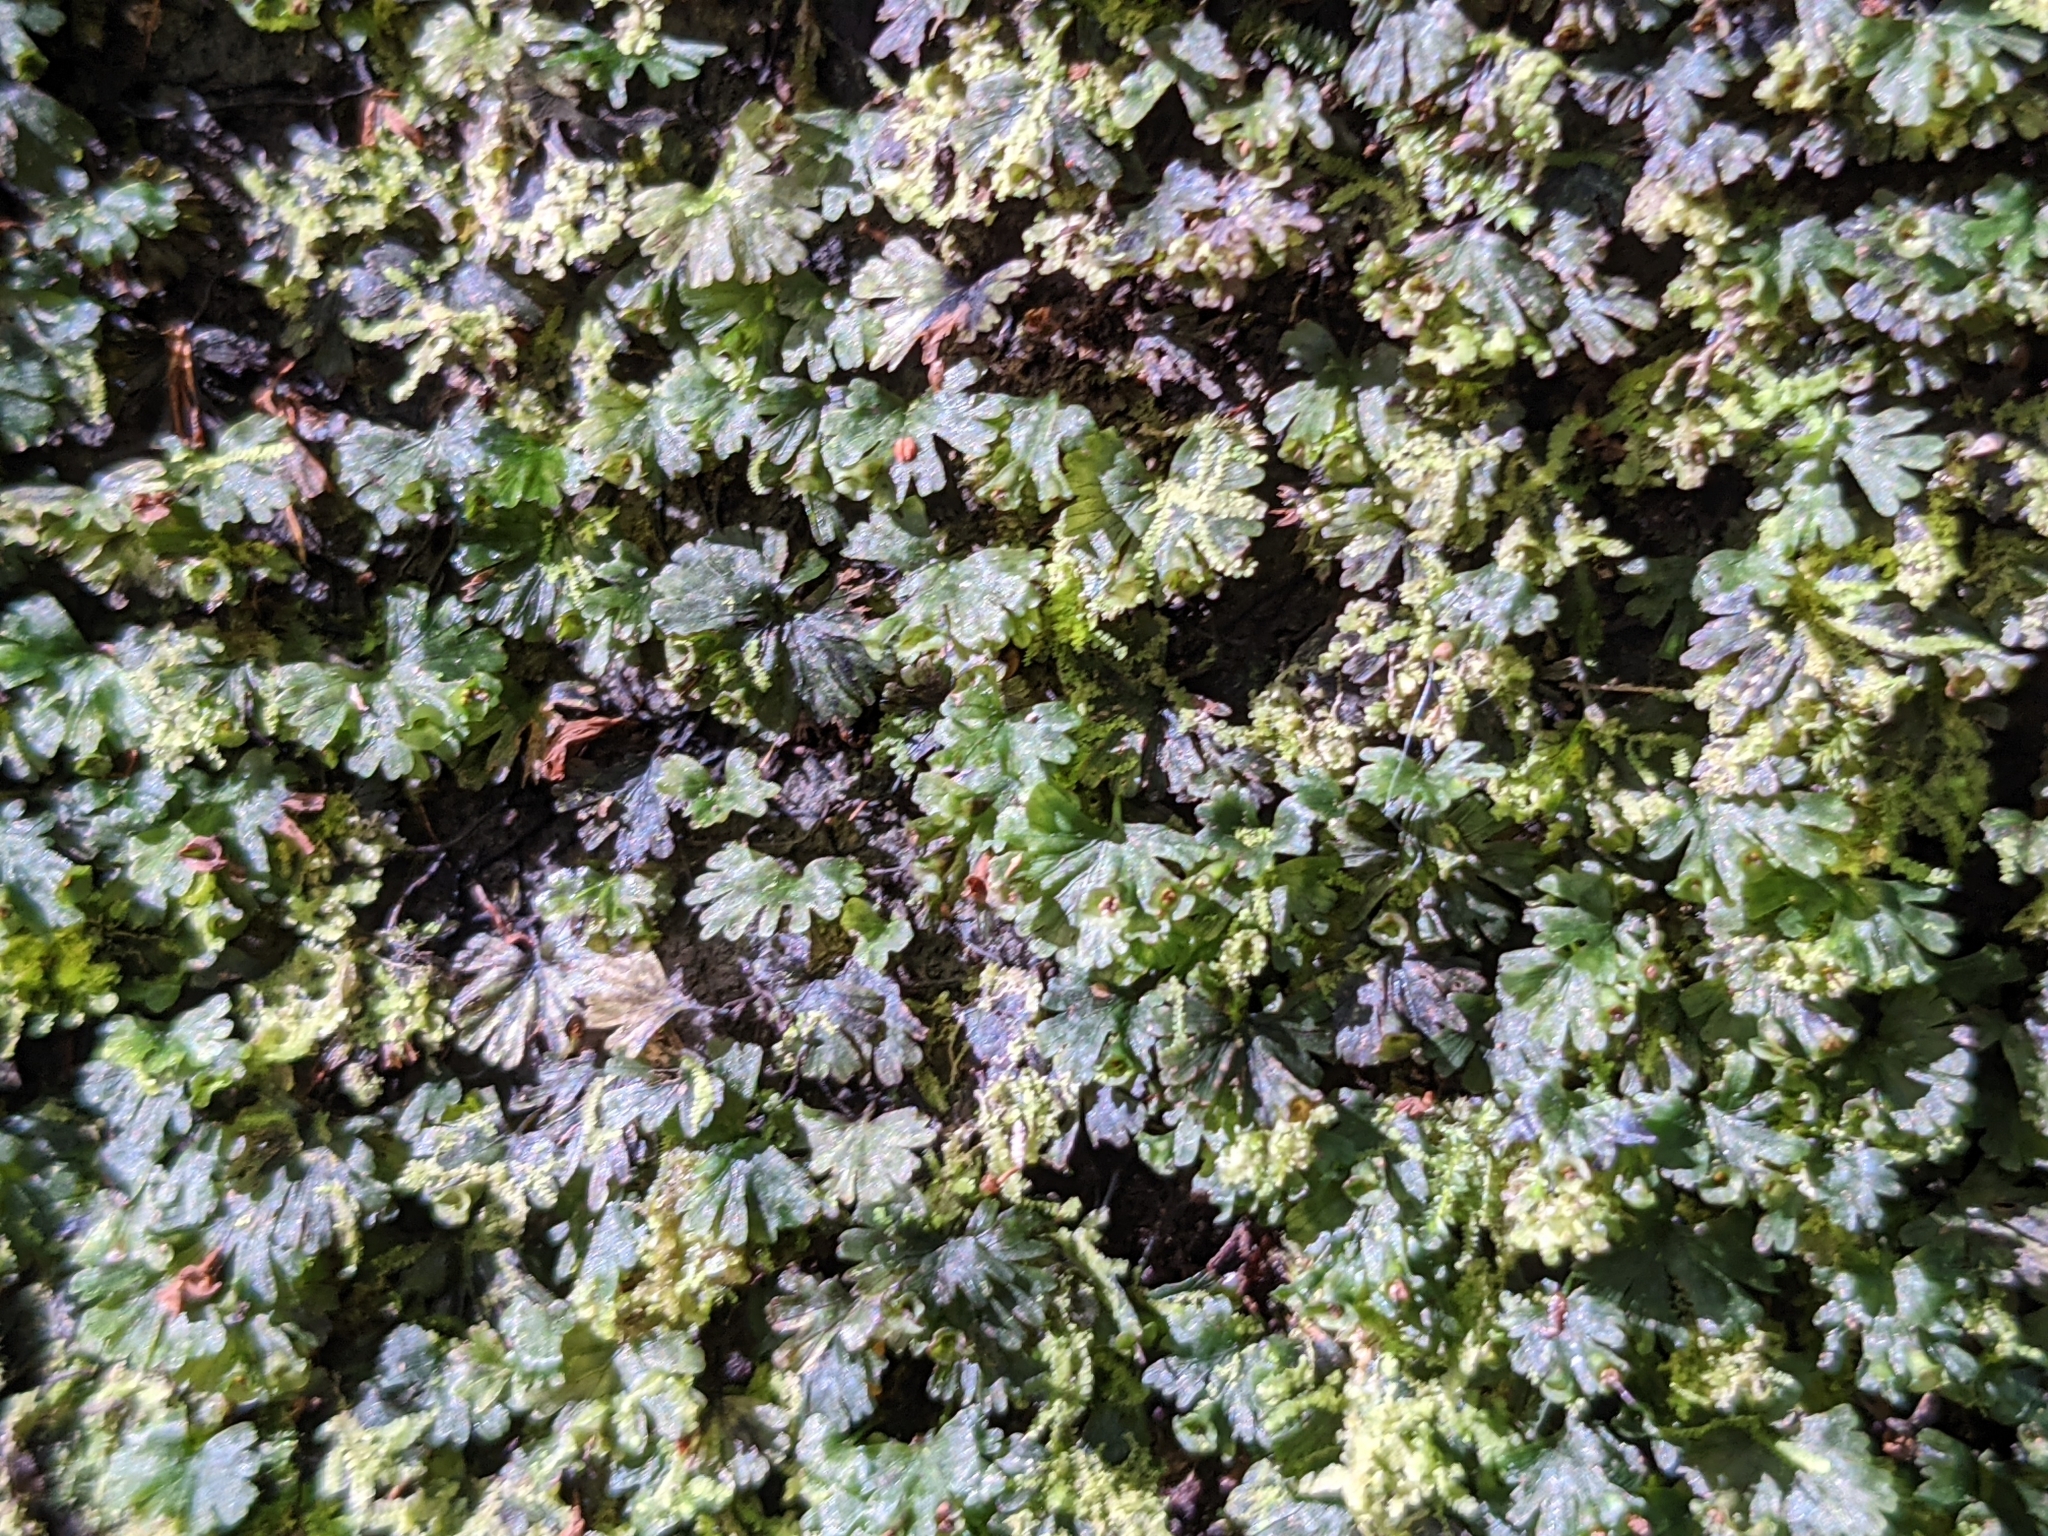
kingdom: Plantae
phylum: Tracheophyta
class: Polypodiopsida
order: Hymenophyllales
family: Hymenophyllaceae
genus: Crepidomanes
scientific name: Crepidomanes parvulum
